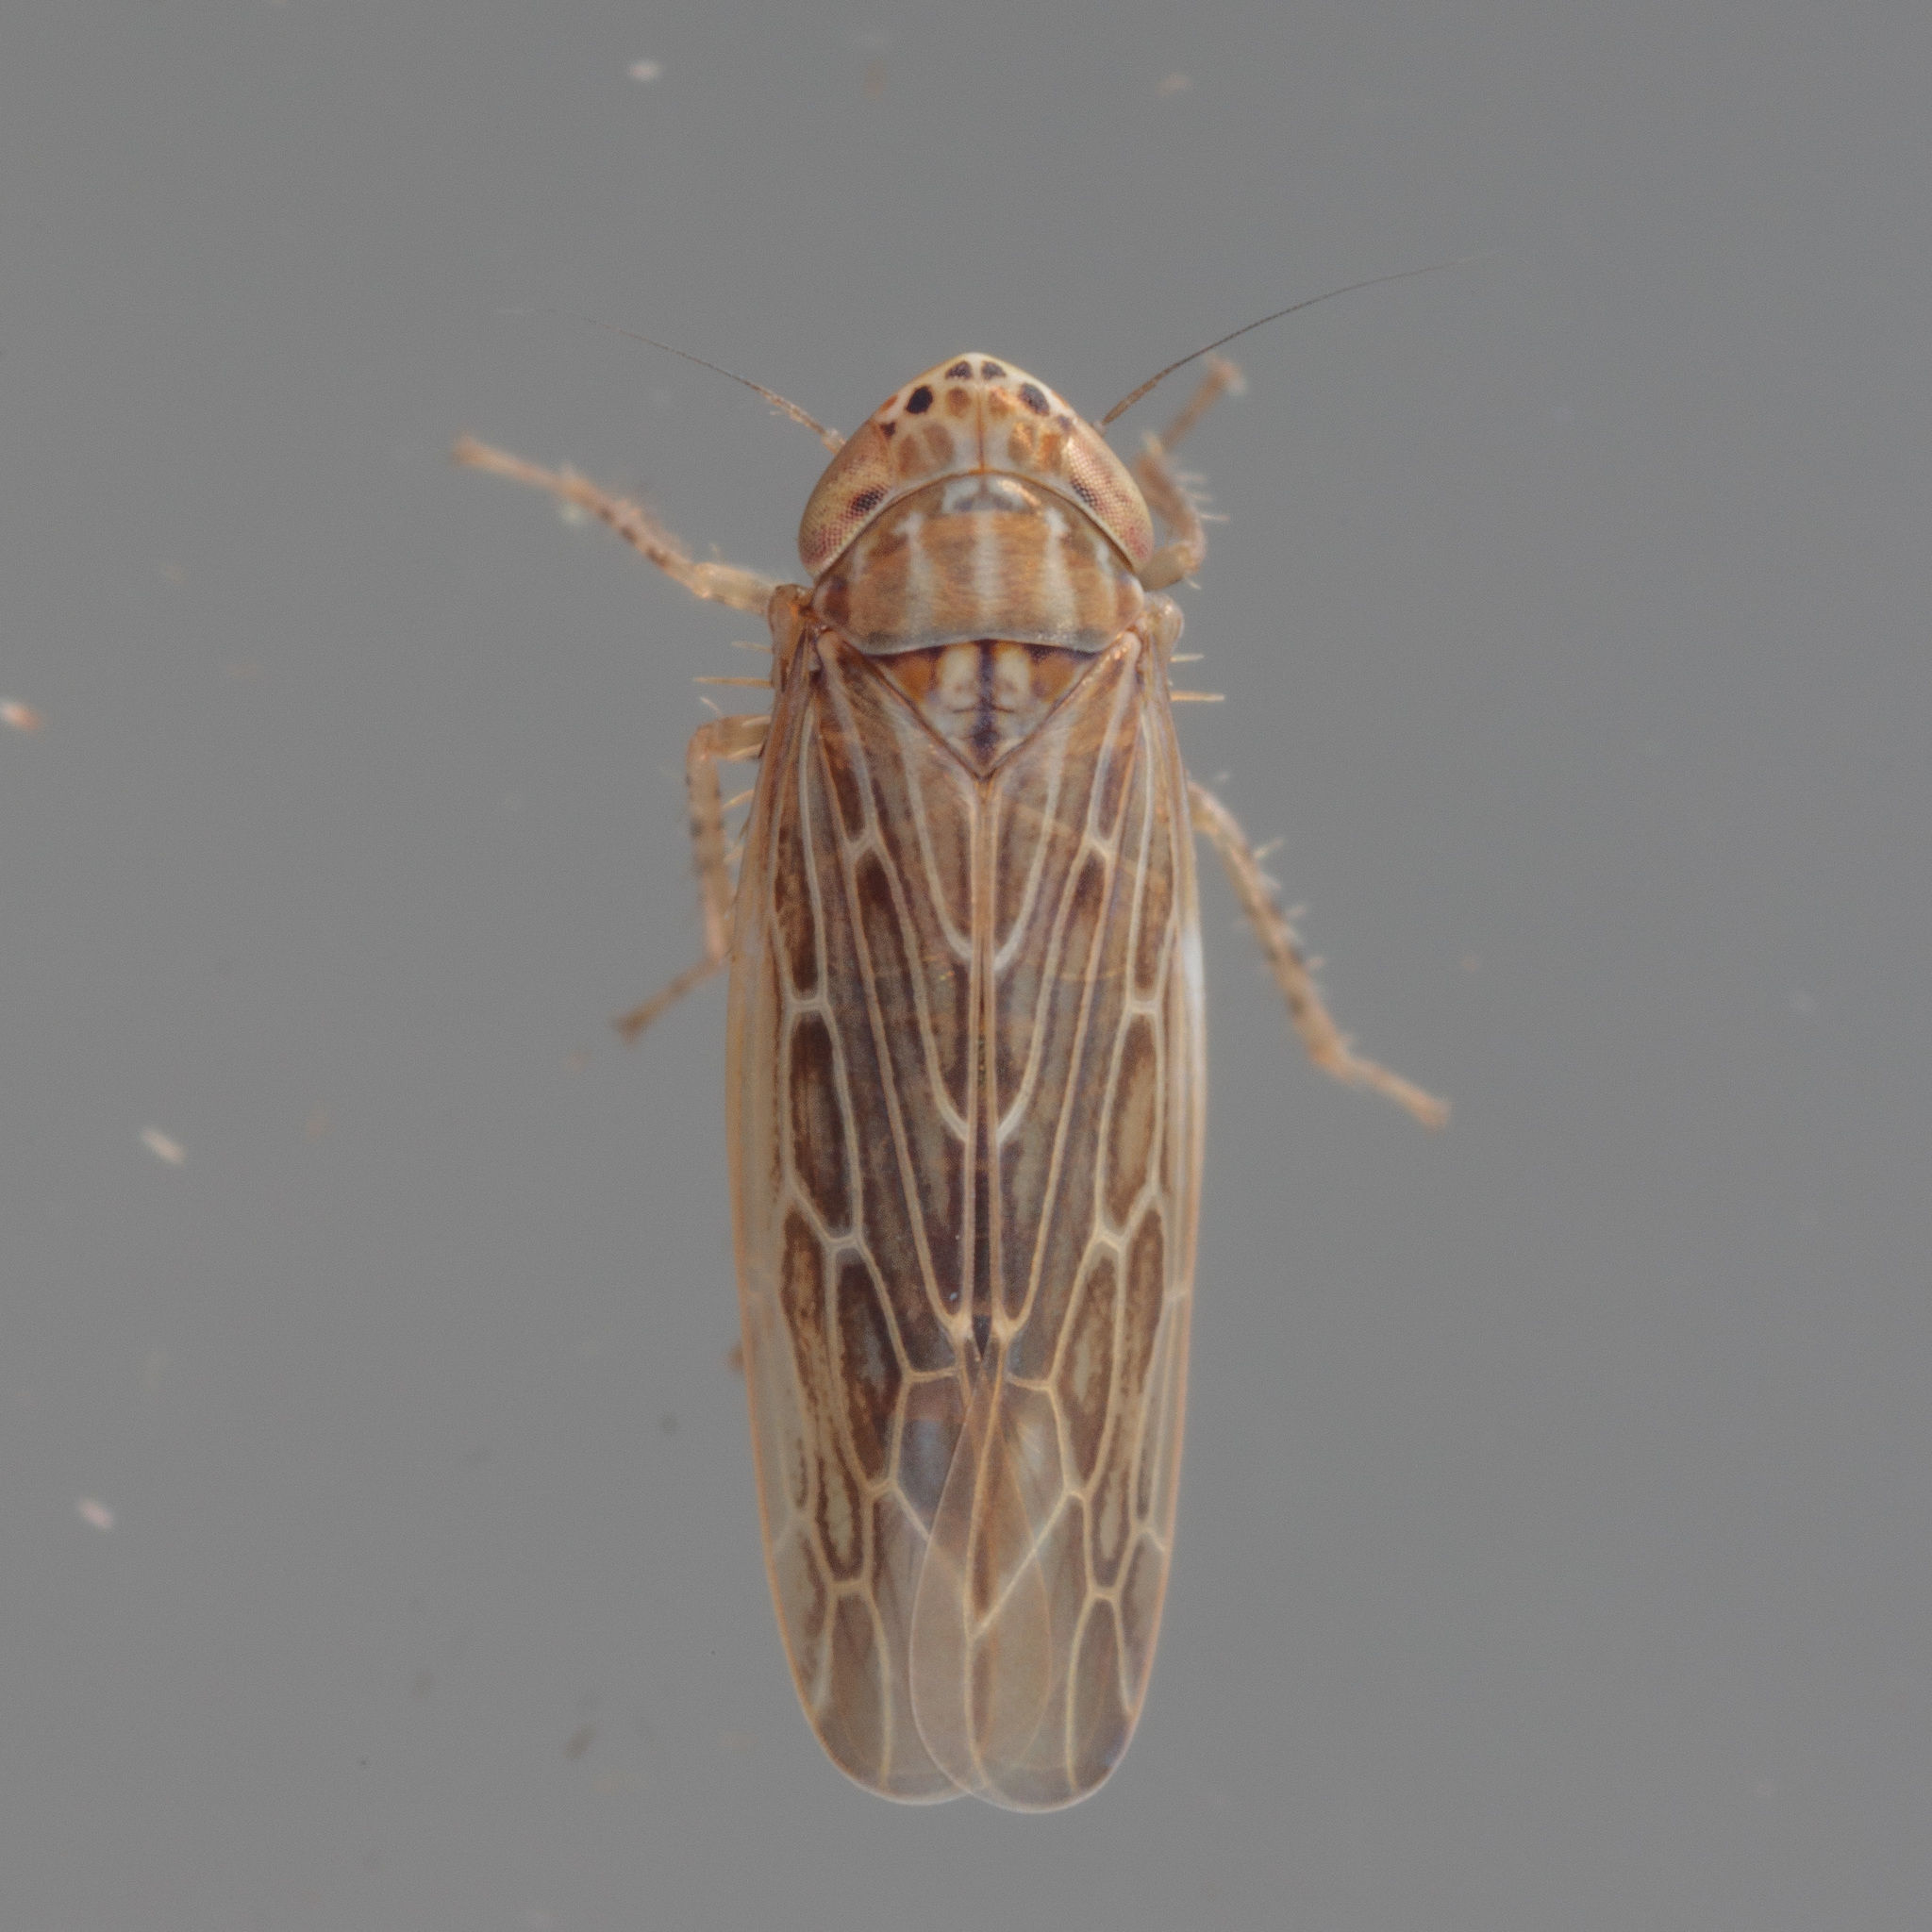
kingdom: Animalia
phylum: Arthropoda
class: Insecta
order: Hemiptera
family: Cicadellidae
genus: Graminella
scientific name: Graminella sonora
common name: Lesser lawn leafhopper
